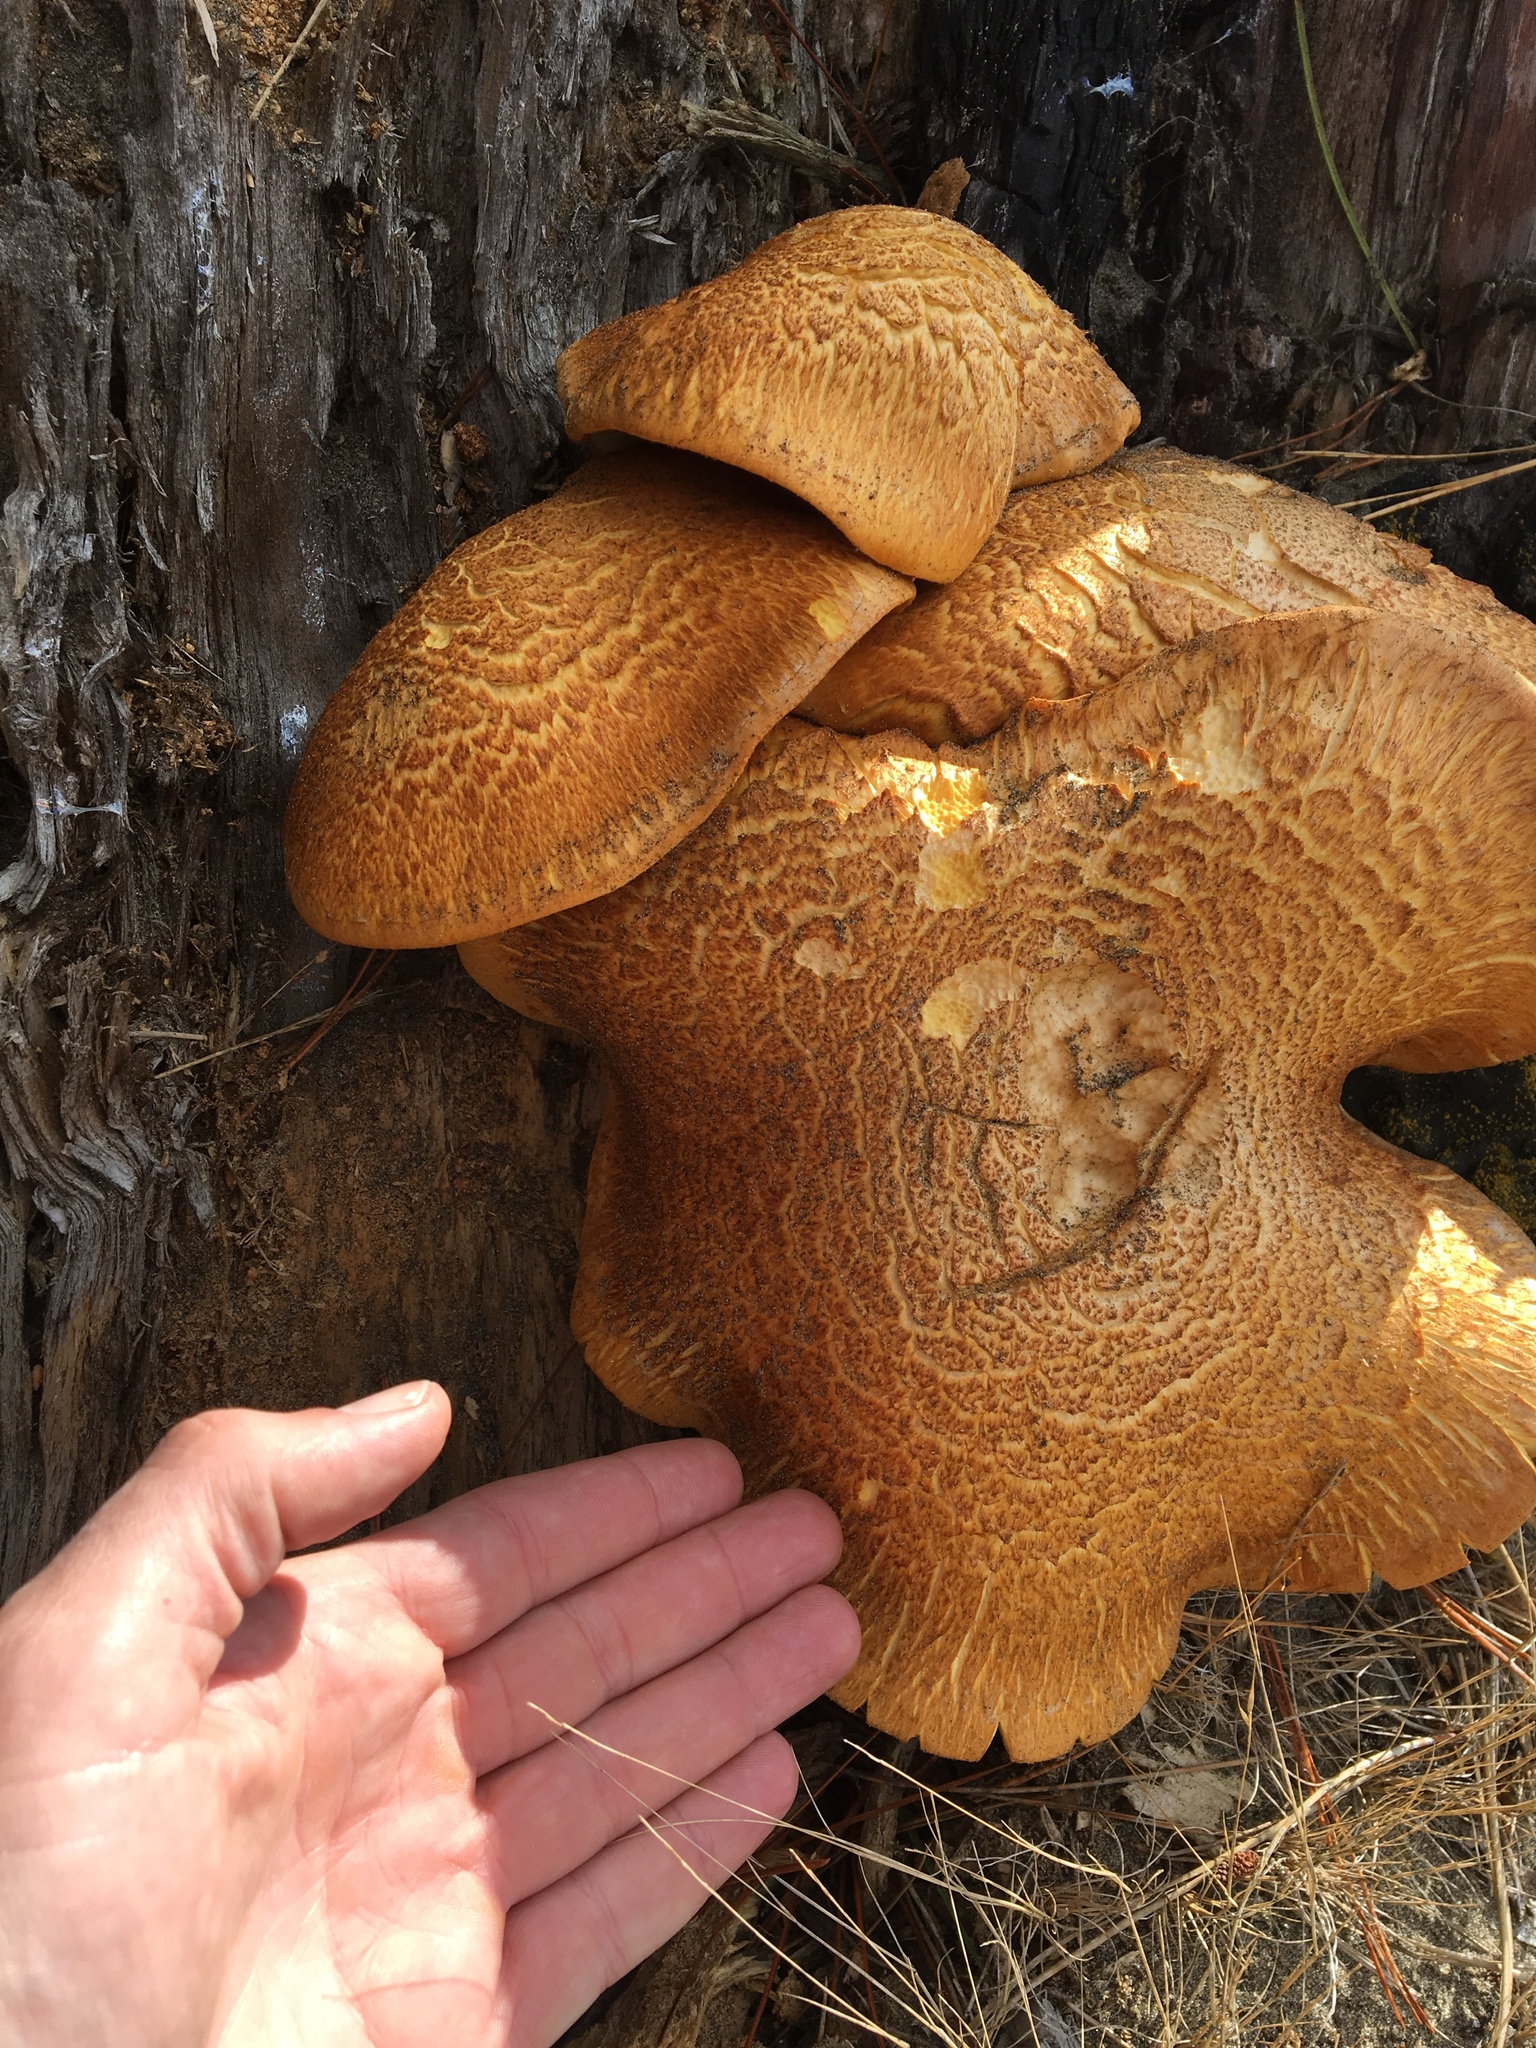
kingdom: Fungi
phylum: Basidiomycota
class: Agaricomycetes
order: Agaricales
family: Hymenogastraceae
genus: Gymnopilus
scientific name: Gymnopilus junonius
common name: Spectacular rustgill
